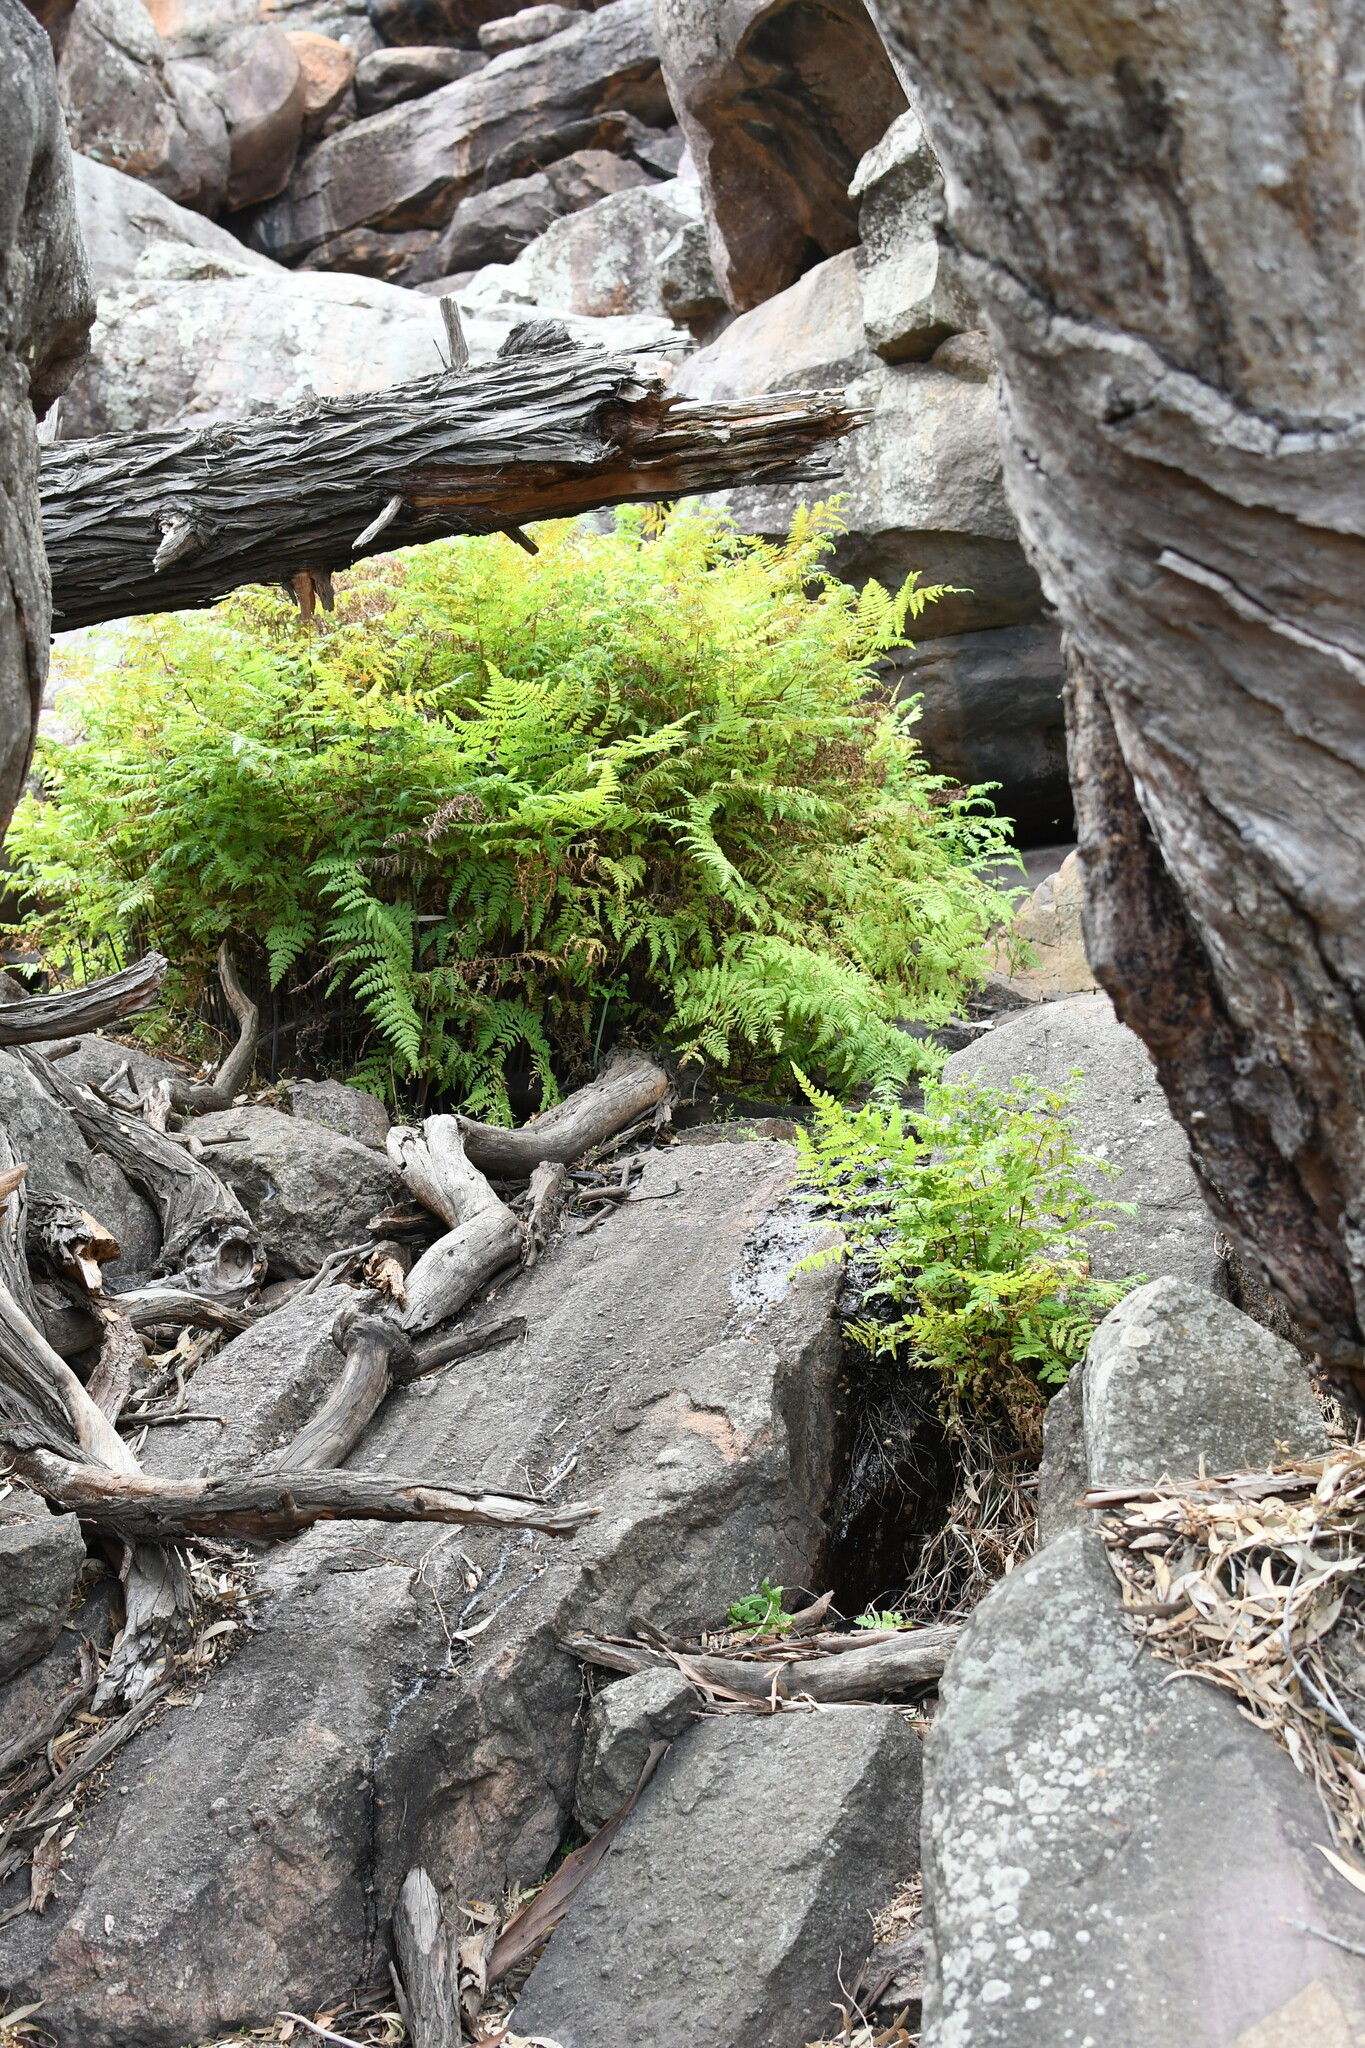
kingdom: Plantae
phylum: Tracheophyta
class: Polypodiopsida
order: Polypodiales
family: Dennstaedtiaceae
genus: Histiopteris
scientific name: Histiopteris incisa
